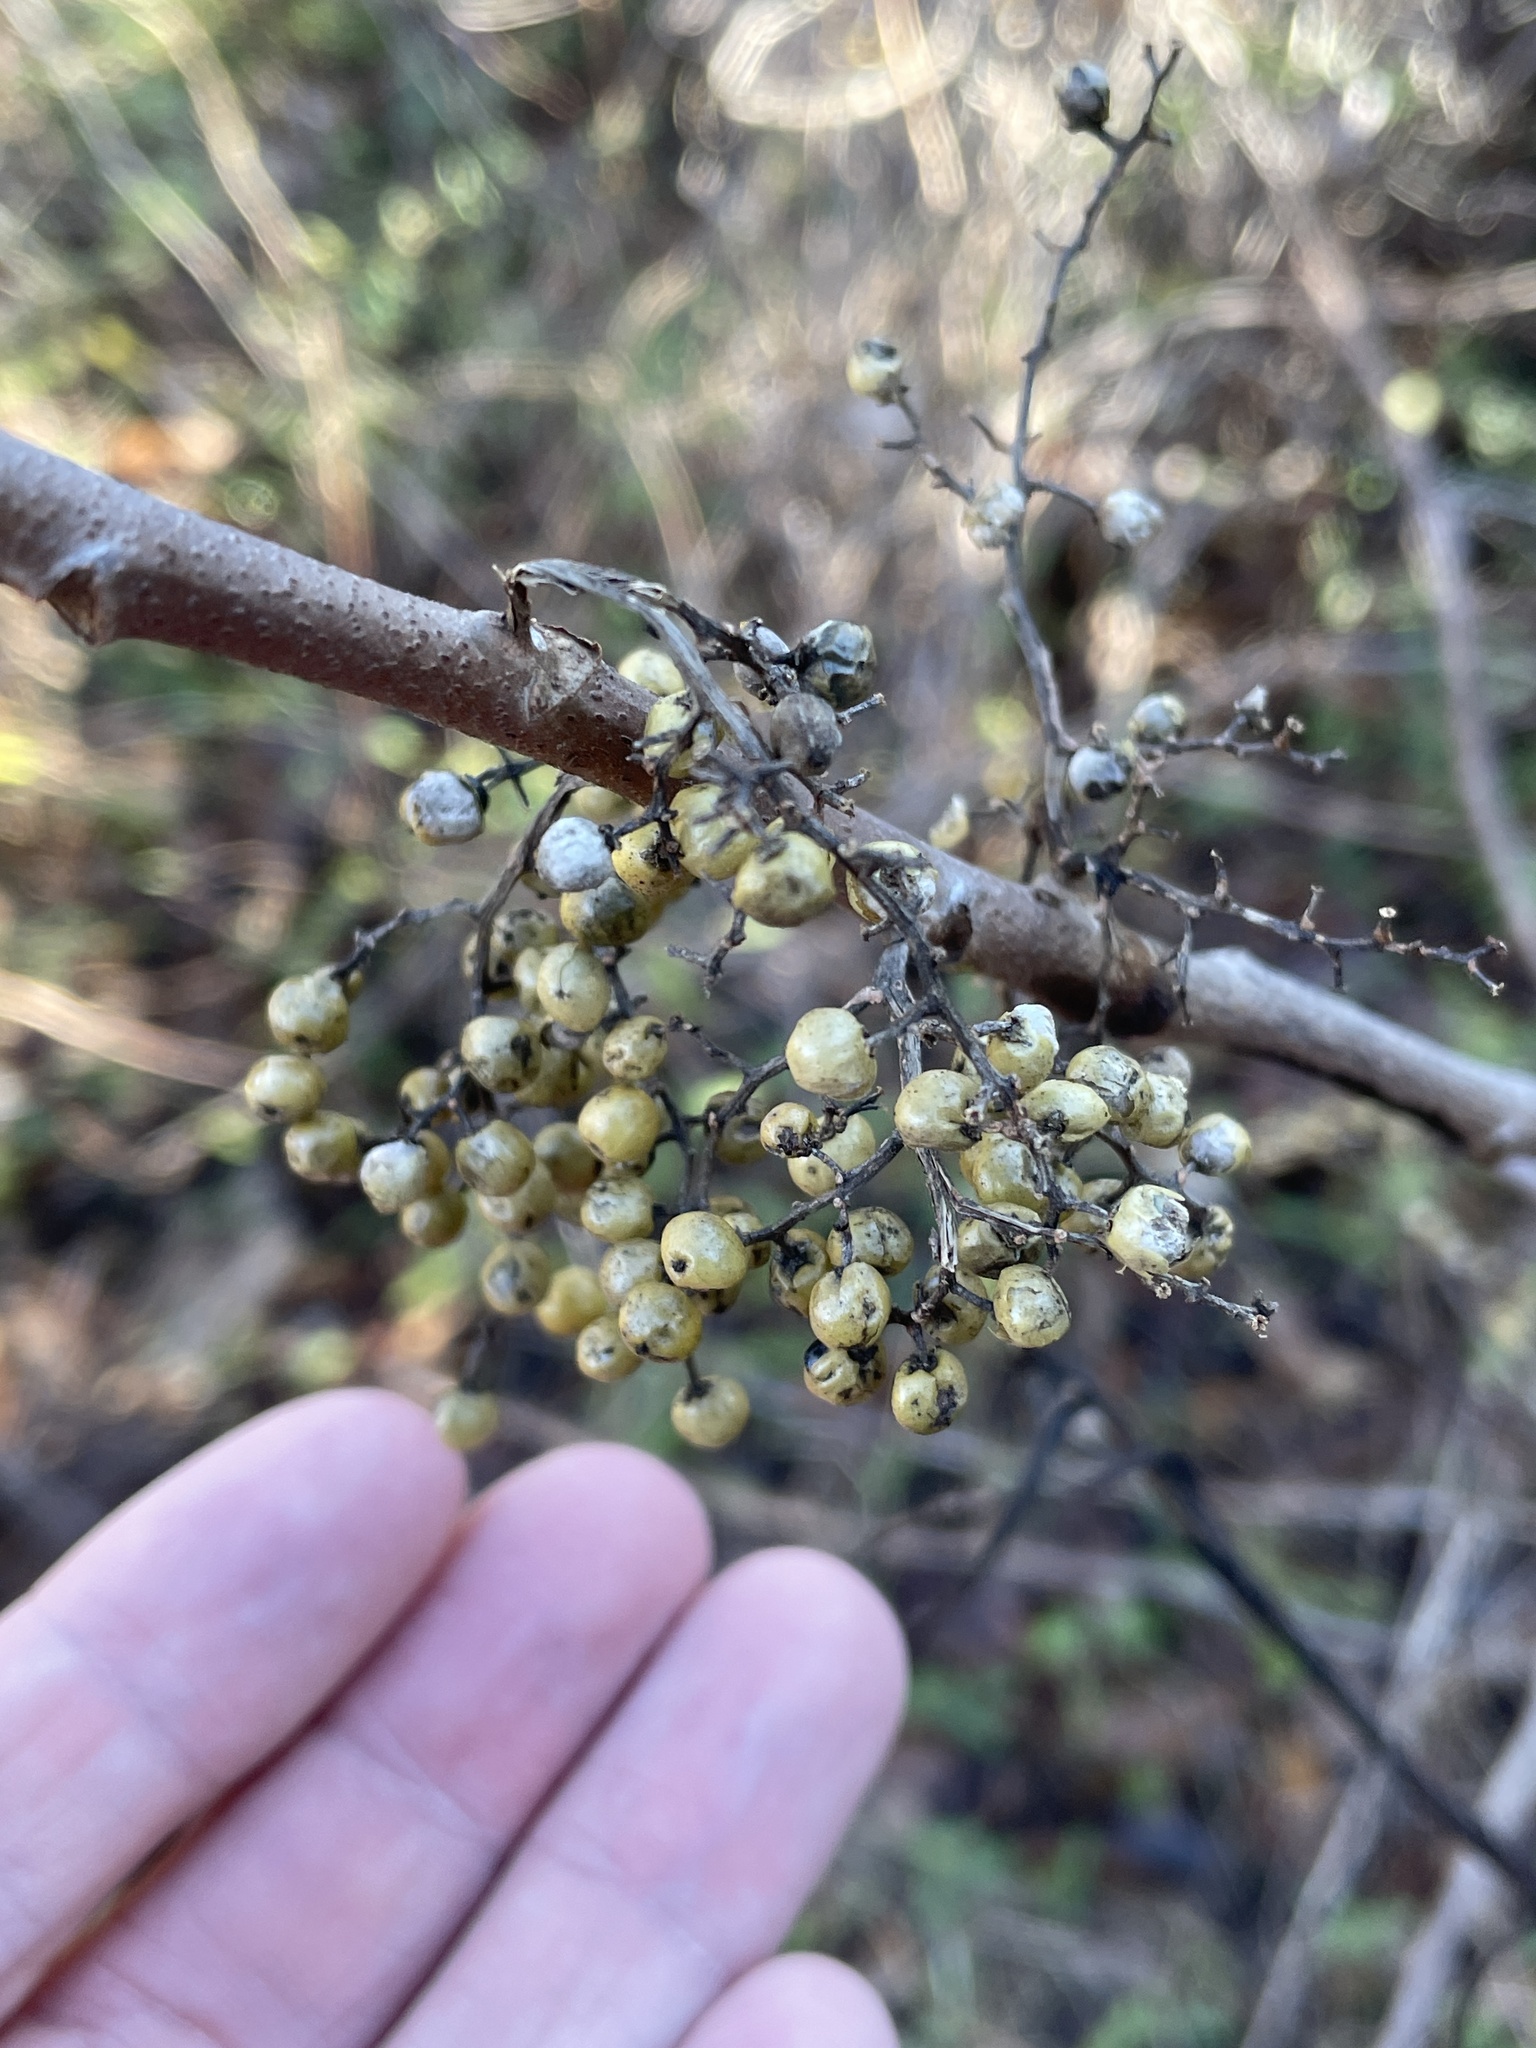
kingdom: Plantae
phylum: Tracheophyta
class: Magnoliopsida
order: Sapindales
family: Anacardiaceae
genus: Toxicodendron
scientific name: Toxicodendron radicans
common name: Poison ivy
